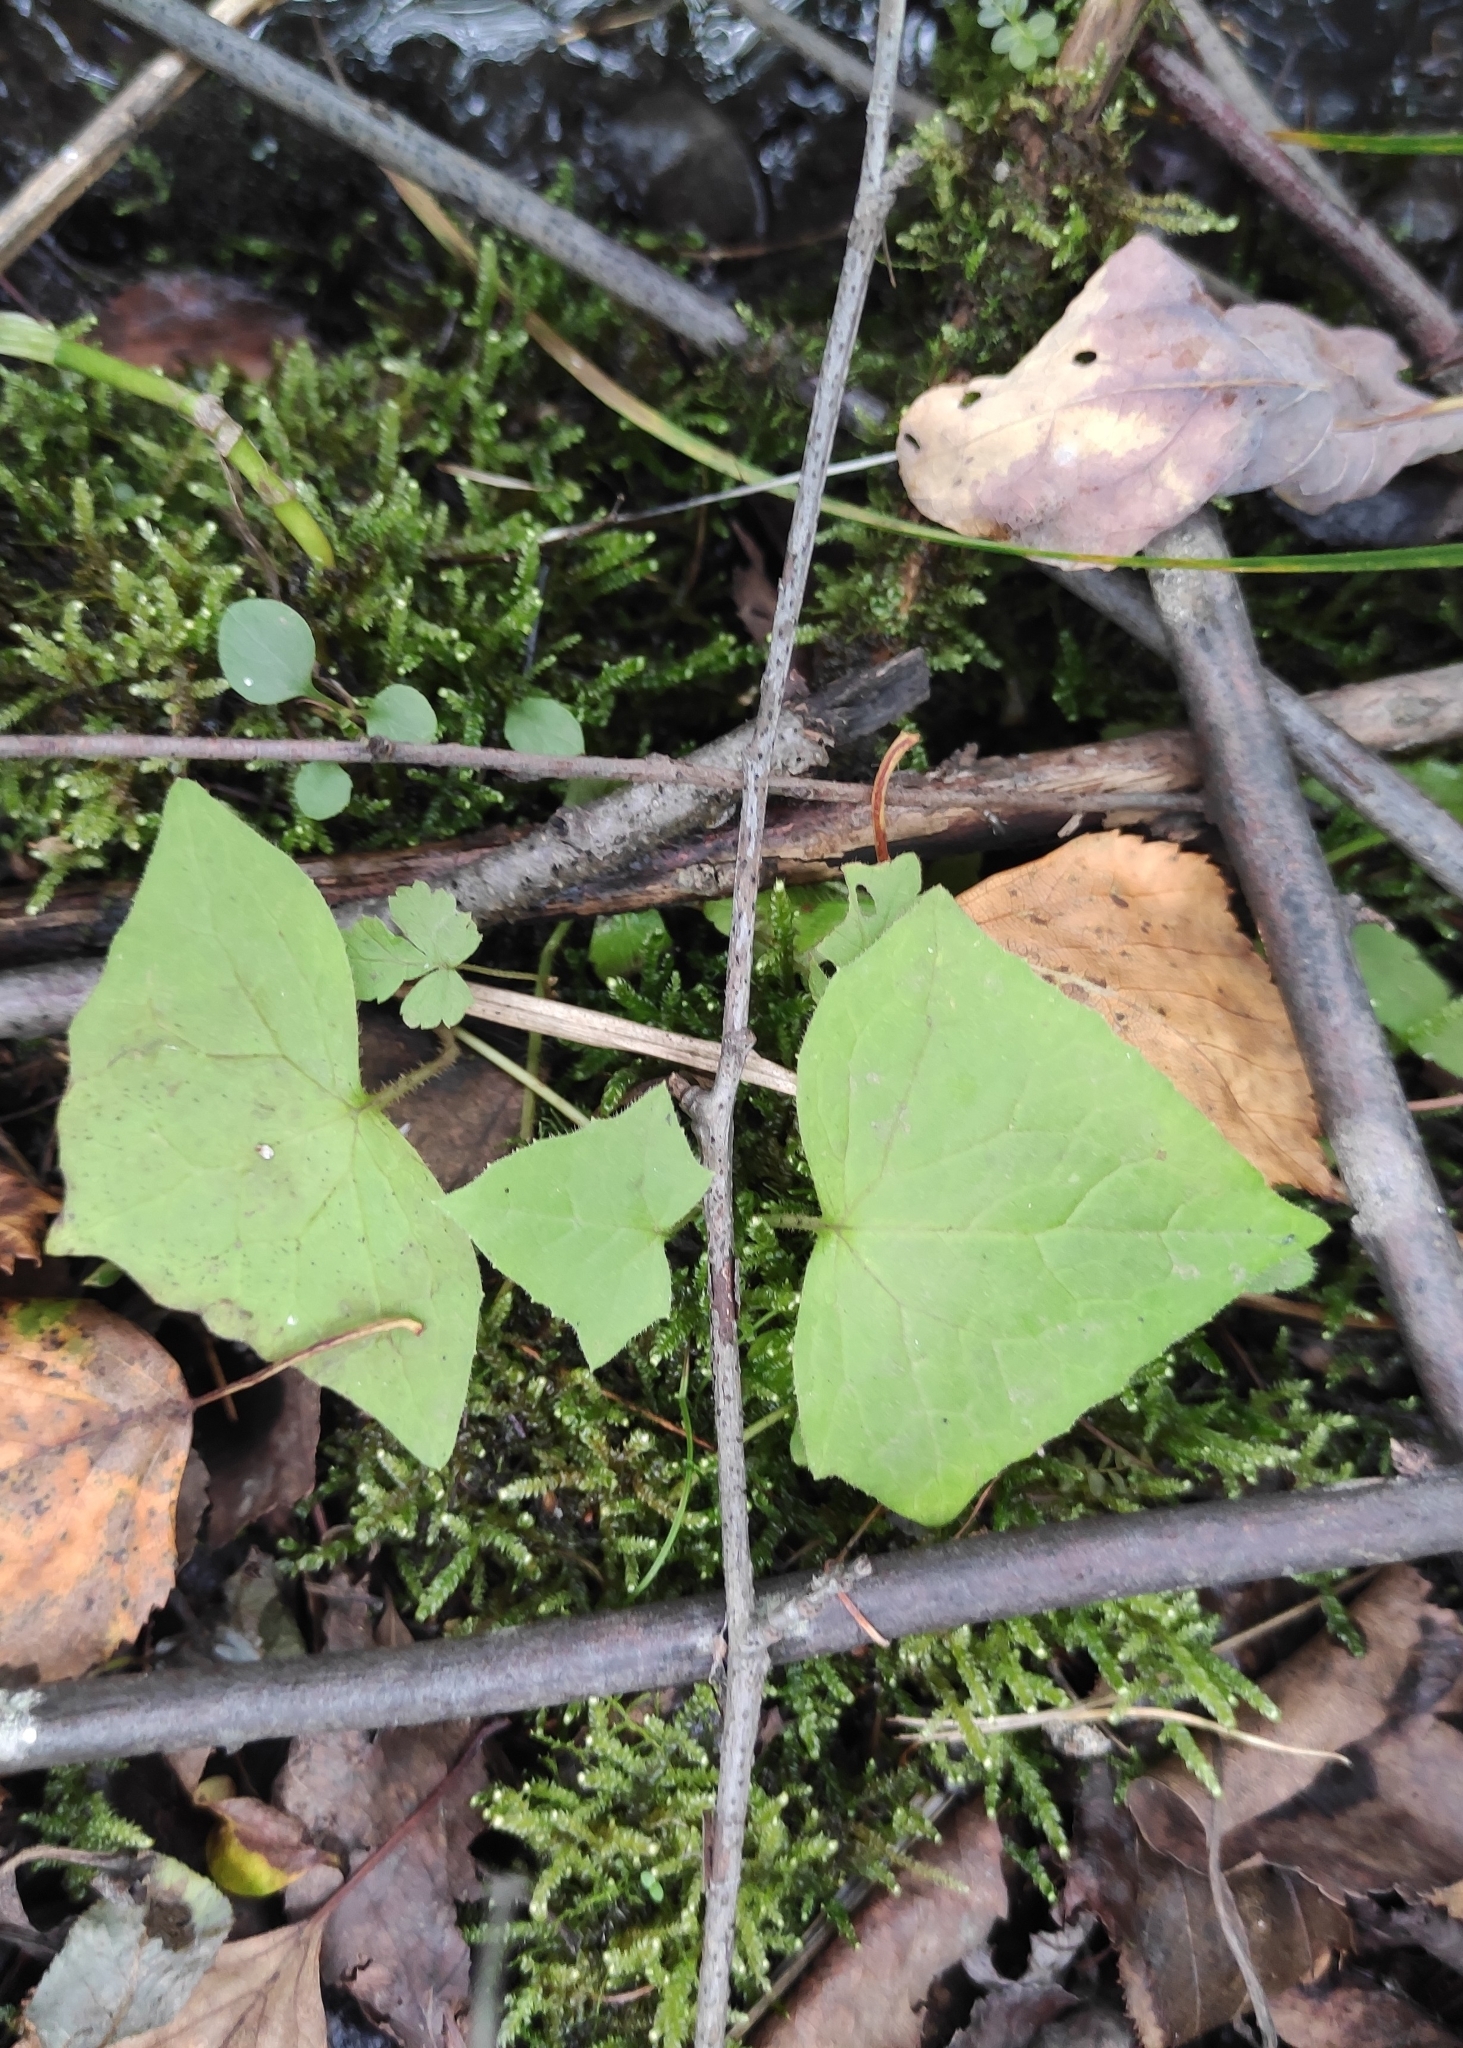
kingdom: Plantae
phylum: Tracheophyta
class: Magnoliopsida
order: Asterales
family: Asteraceae
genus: Parasenecio
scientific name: Parasenecio hastatus
